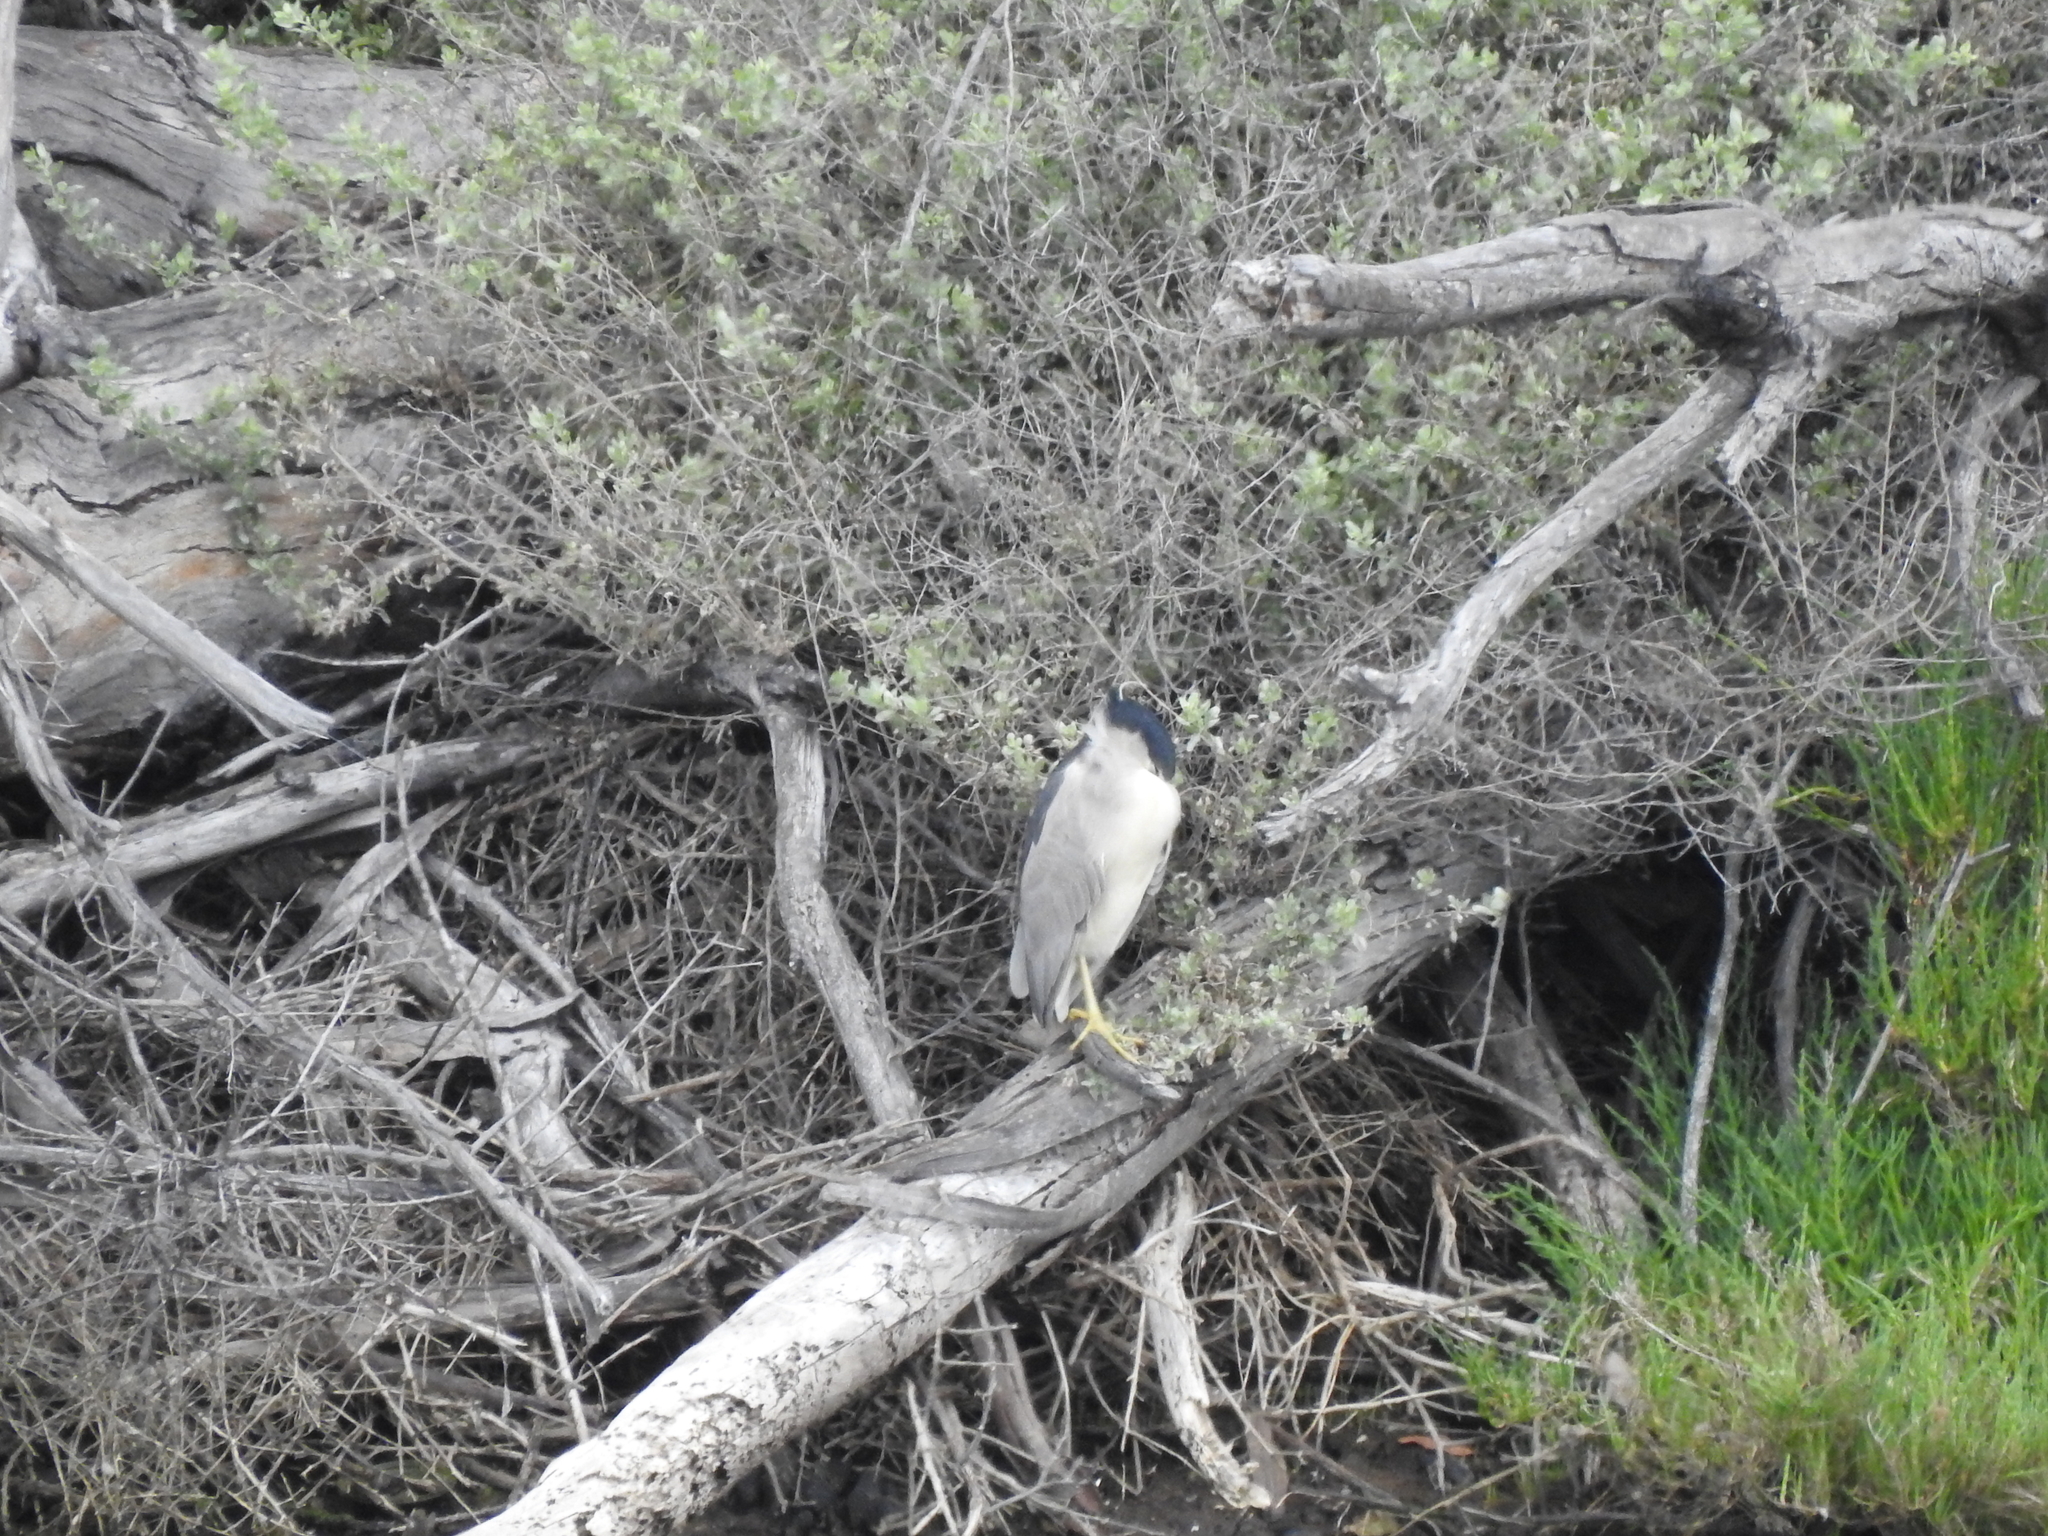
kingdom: Animalia
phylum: Chordata
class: Aves
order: Pelecaniformes
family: Ardeidae
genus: Nycticorax
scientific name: Nycticorax nycticorax
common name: Black-crowned night heron
